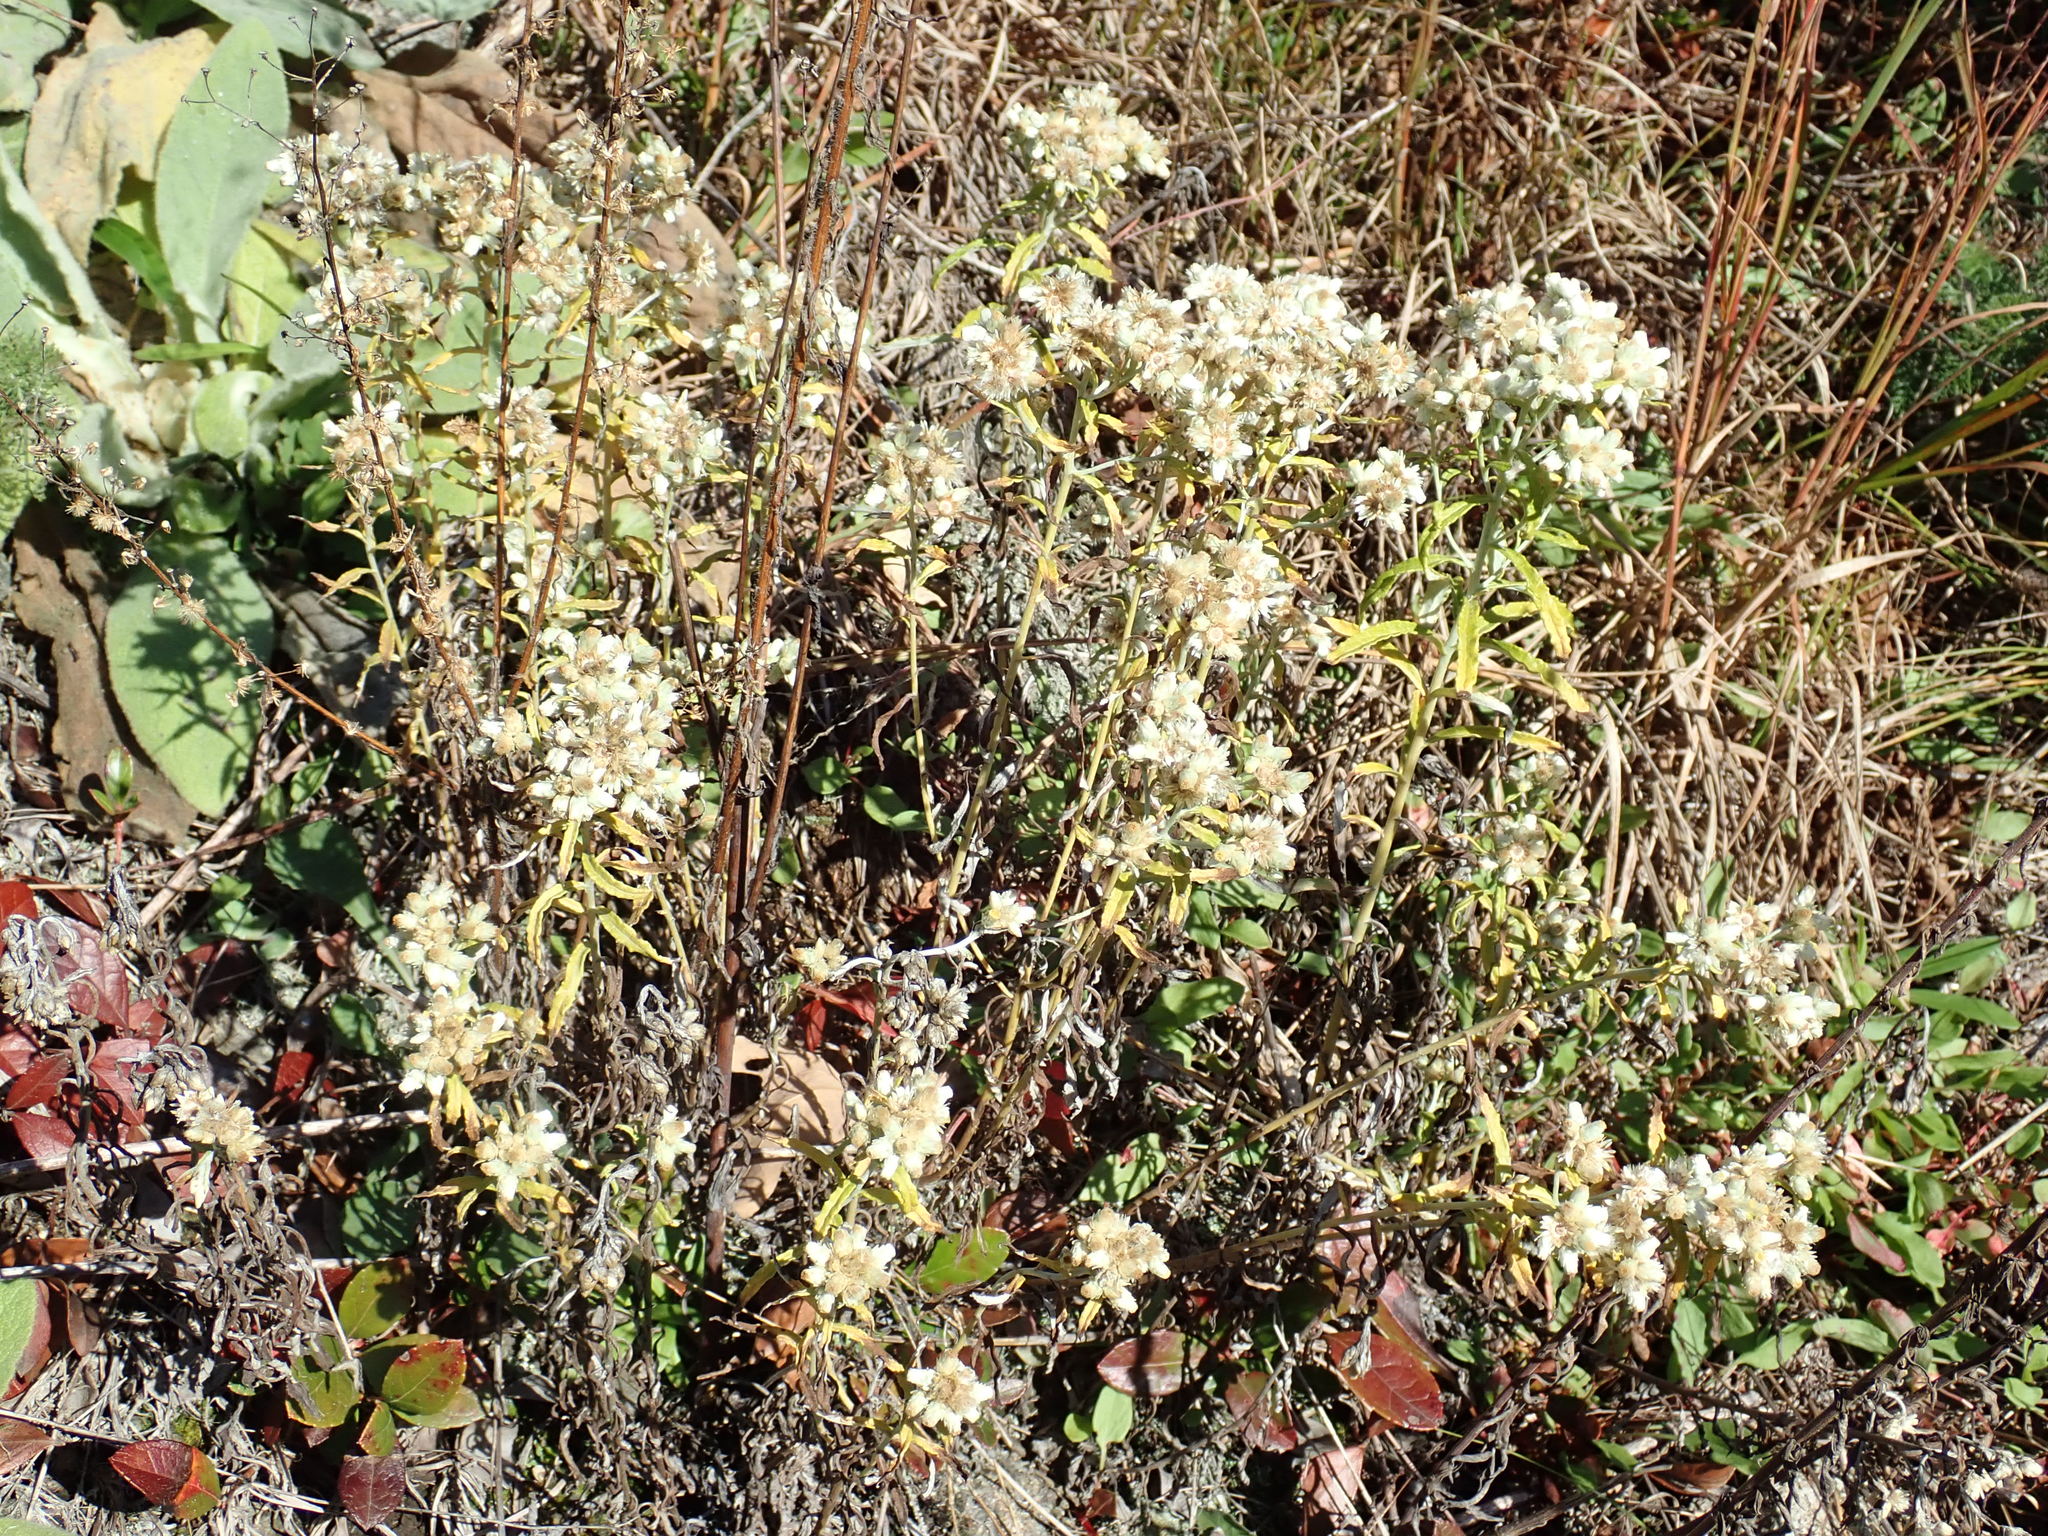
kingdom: Plantae
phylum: Tracheophyta
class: Magnoliopsida
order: Asterales
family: Asteraceae
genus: Pseudognaphalium
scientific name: Pseudognaphalium obtusifolium
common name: Eastern rabbit-tobacco
